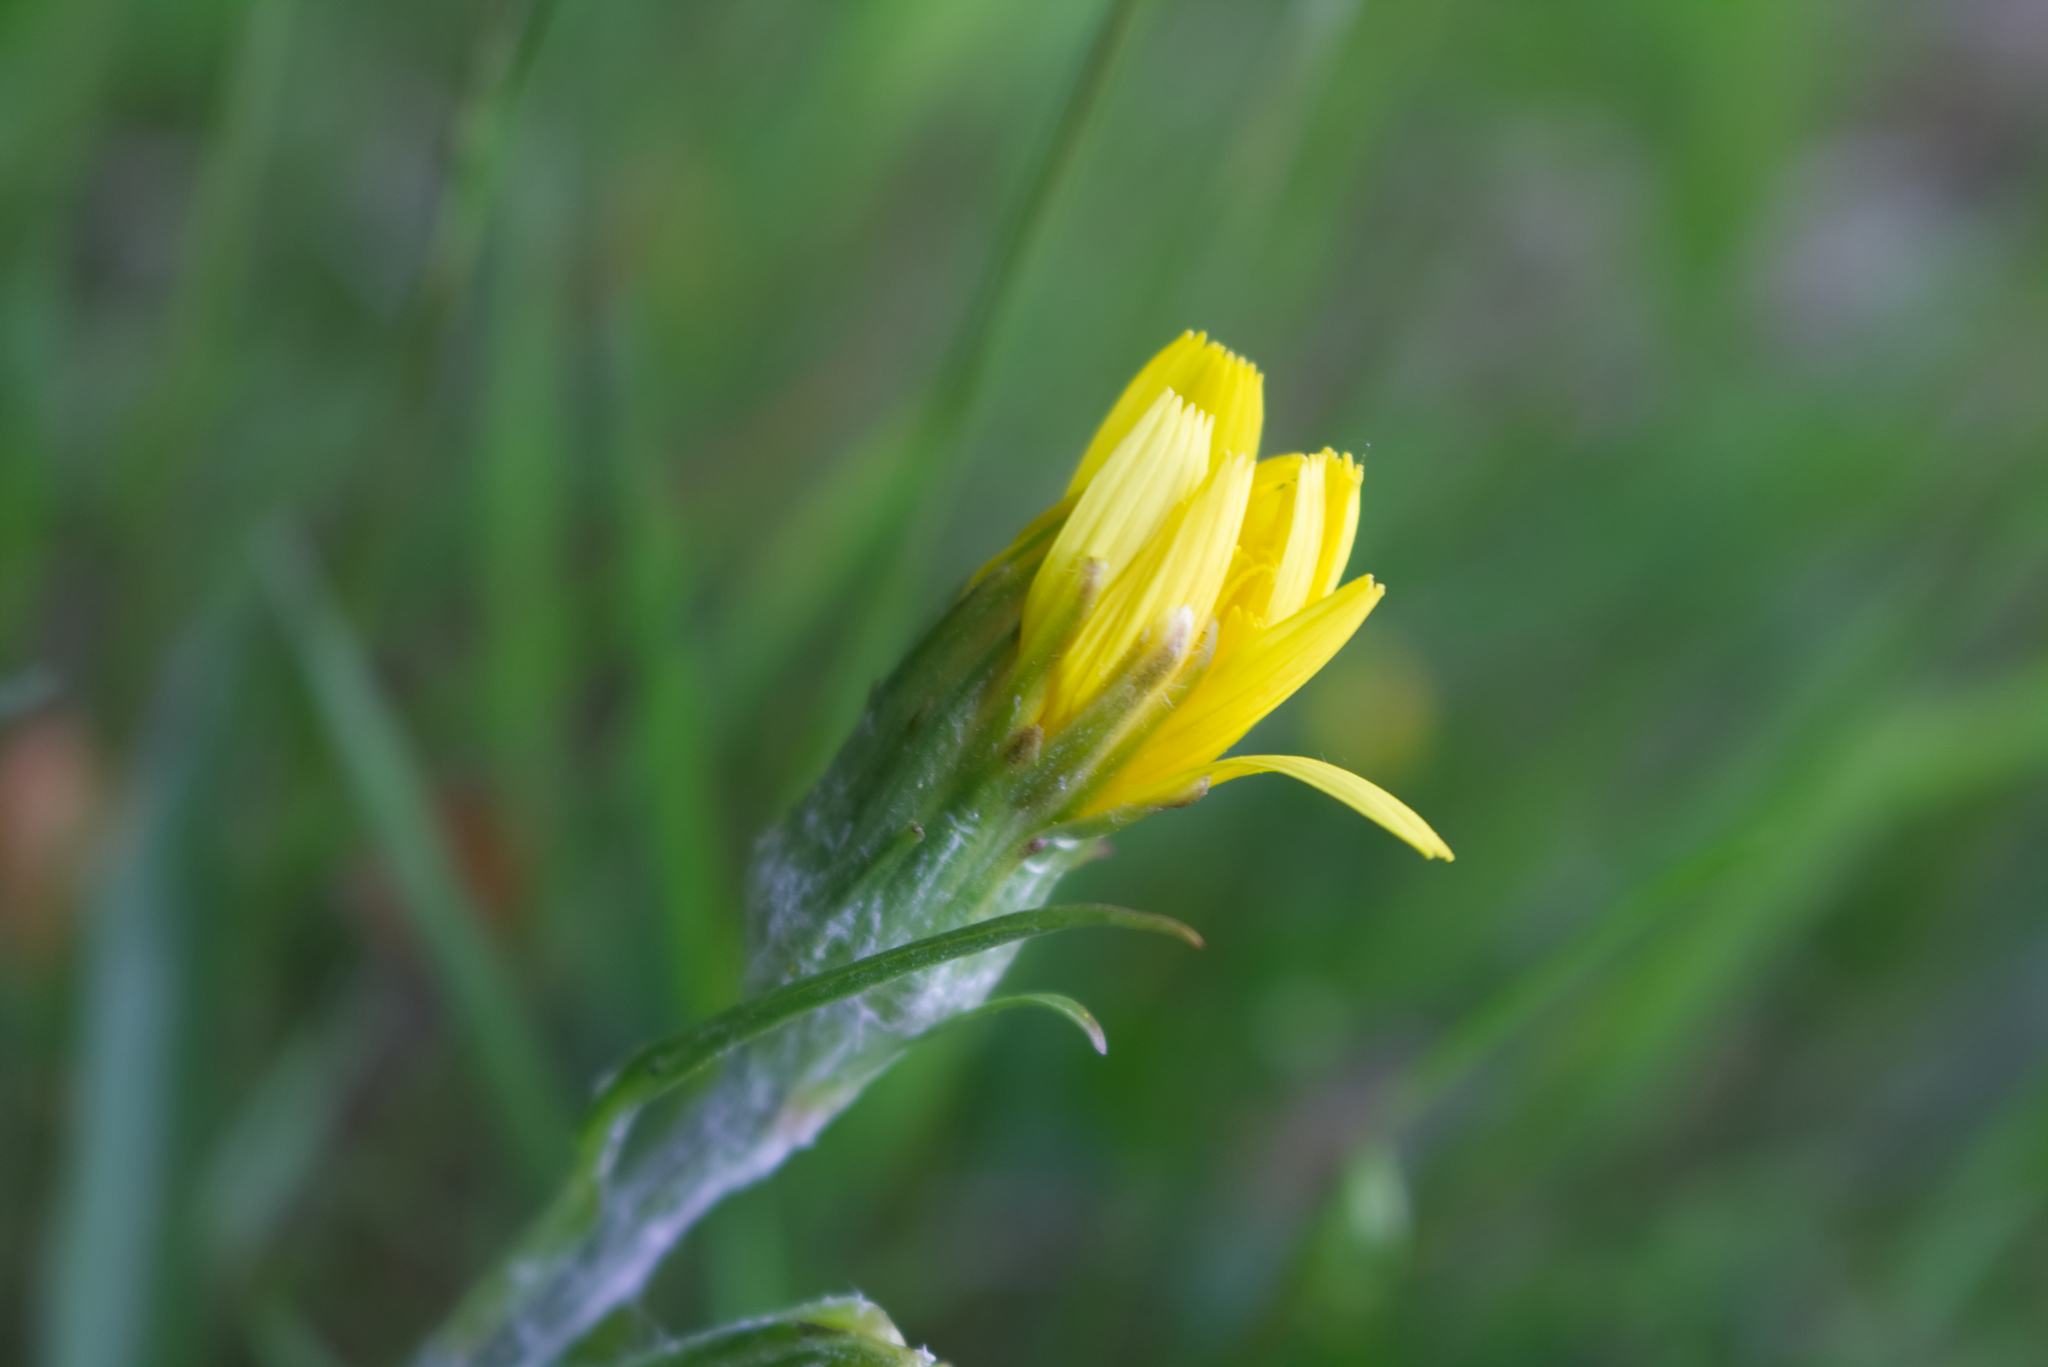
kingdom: Plantae
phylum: Tracheophyta
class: Magnoliopsida
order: Asterales
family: Asteraceae
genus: Scorzonera
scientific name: Scorzonera humilis
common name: Viper's-grass
